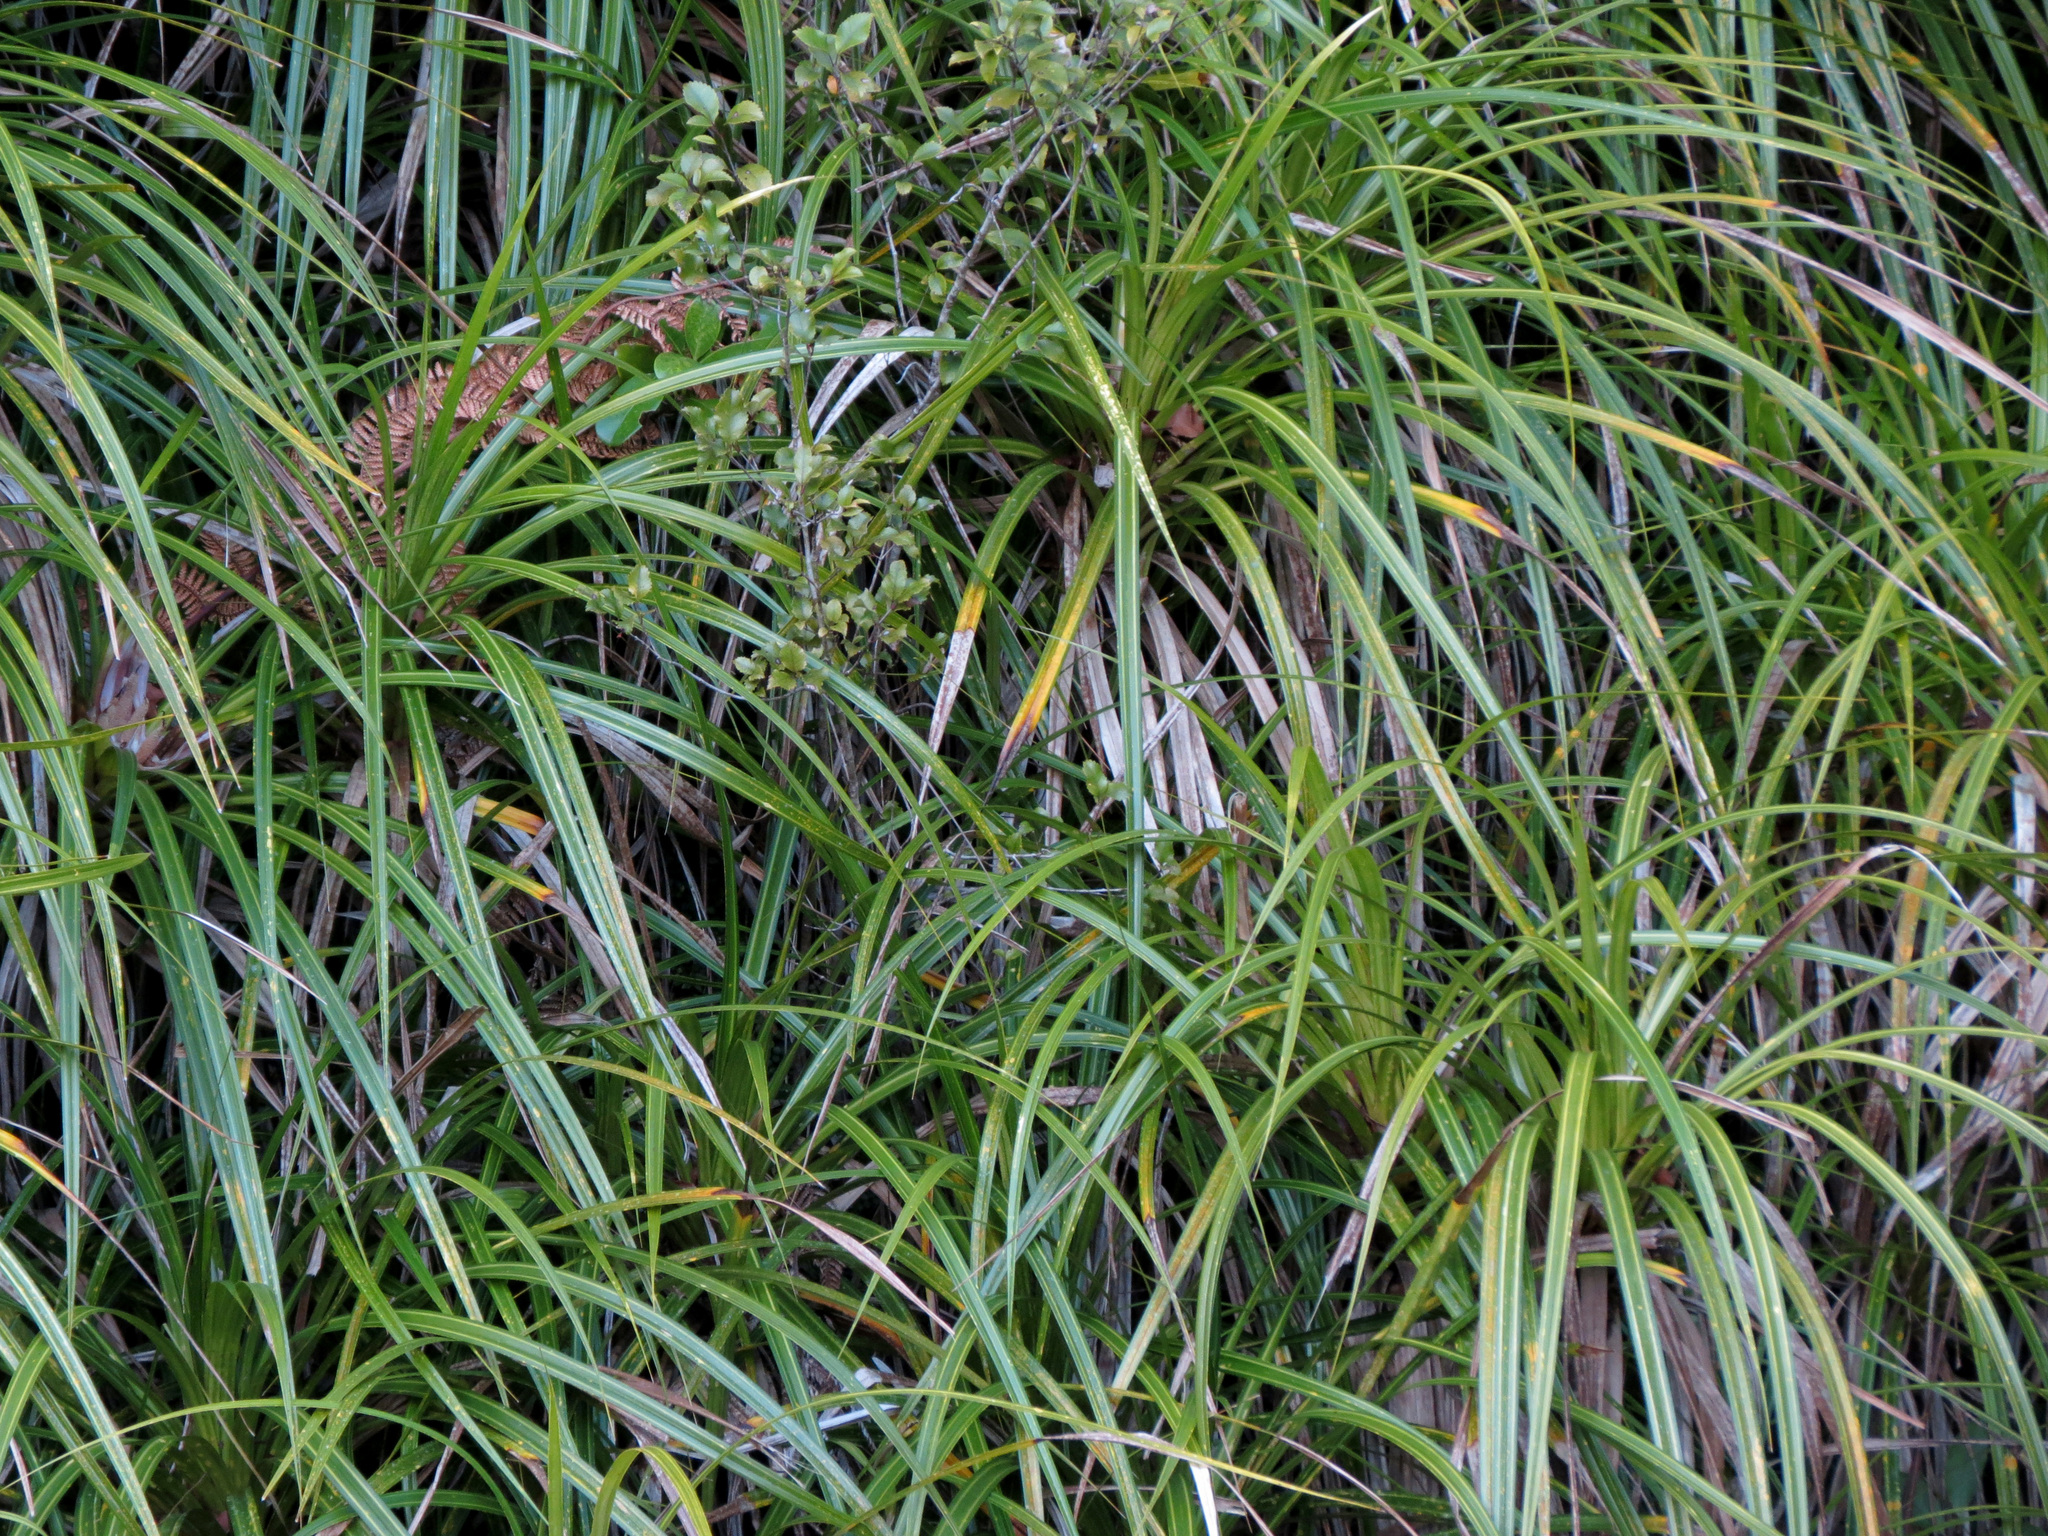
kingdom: Plantae
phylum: Tracheophyta
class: Liliopsida
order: Pandanales
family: Pandanaceae
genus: Freycinetia
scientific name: Freycinetia banksii
